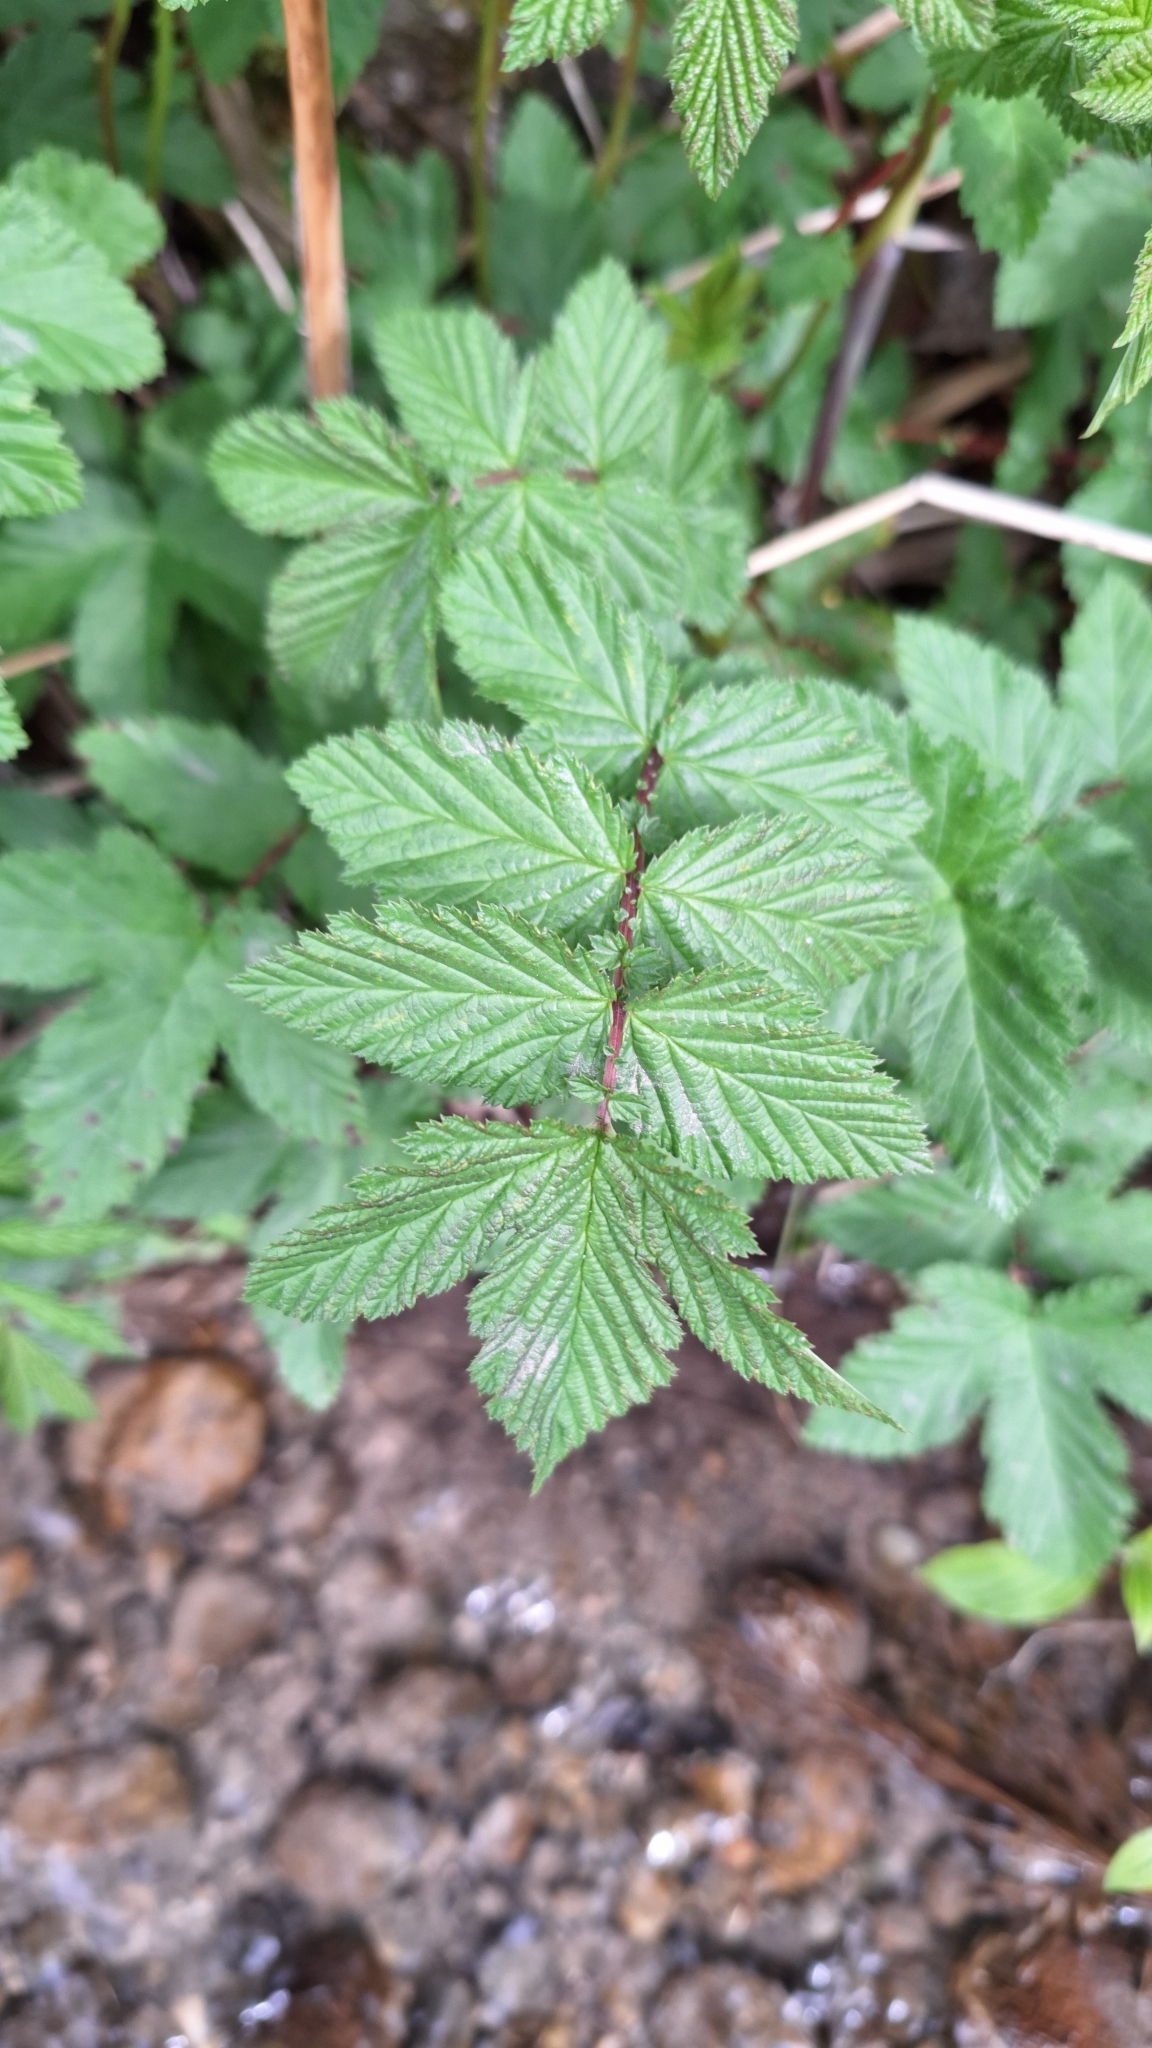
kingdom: Plantae
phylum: Tracheophyta
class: Magnoliopsida
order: Rosales
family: Rosaceae
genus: Filipendula
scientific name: Filipendula ulmaria
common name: Meadowsweet
